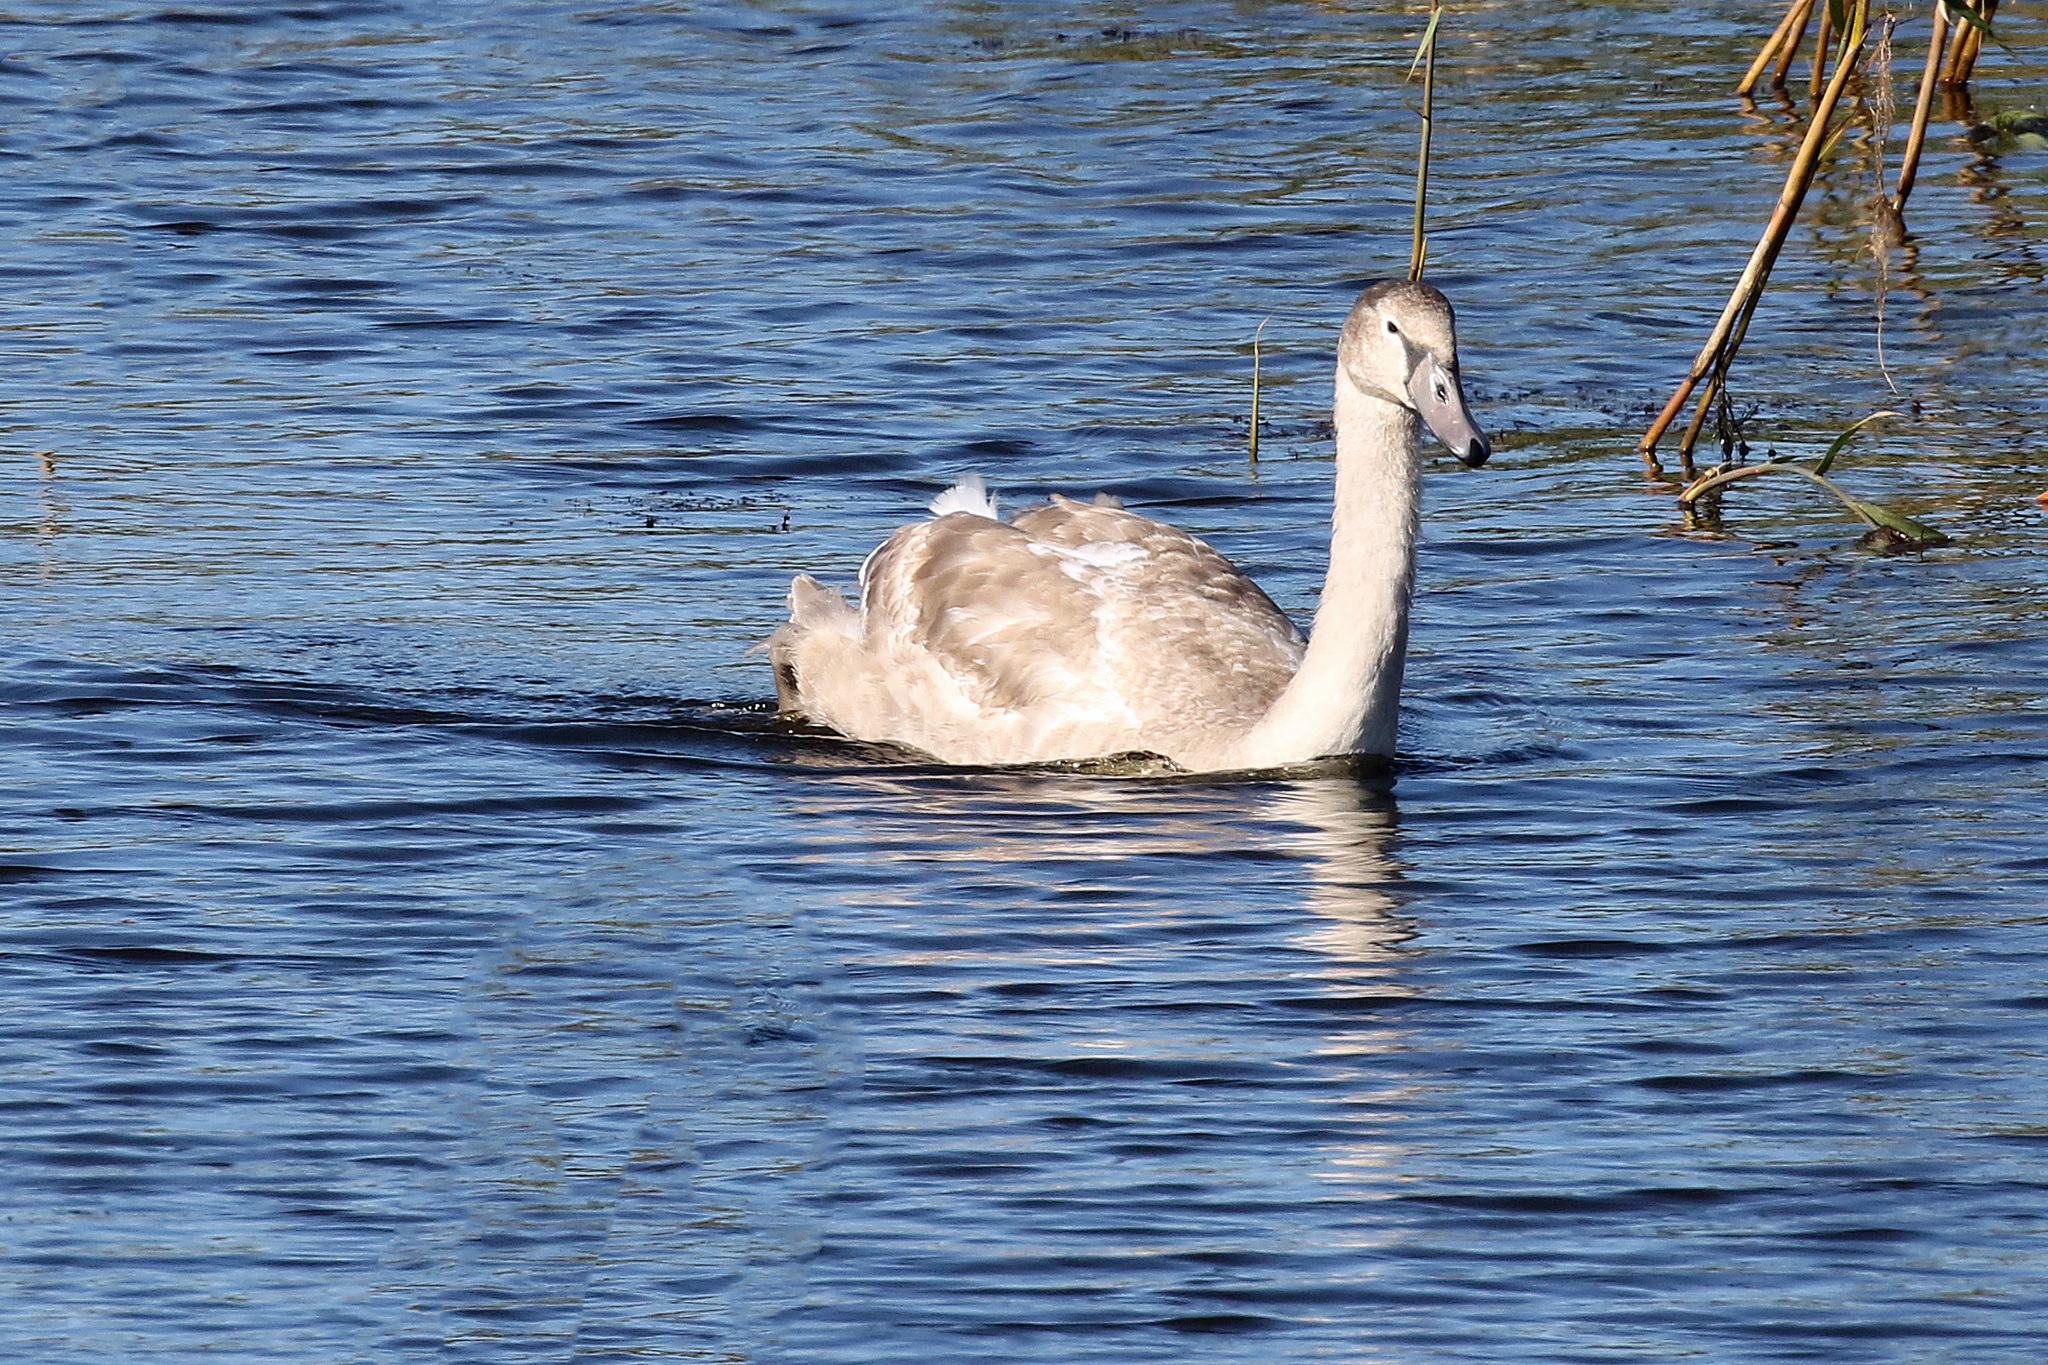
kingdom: Animalia
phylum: Chordata
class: Aves
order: Anseriformes
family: Anatidae
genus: Cygnus
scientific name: Cygnus olor
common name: Mute swan
